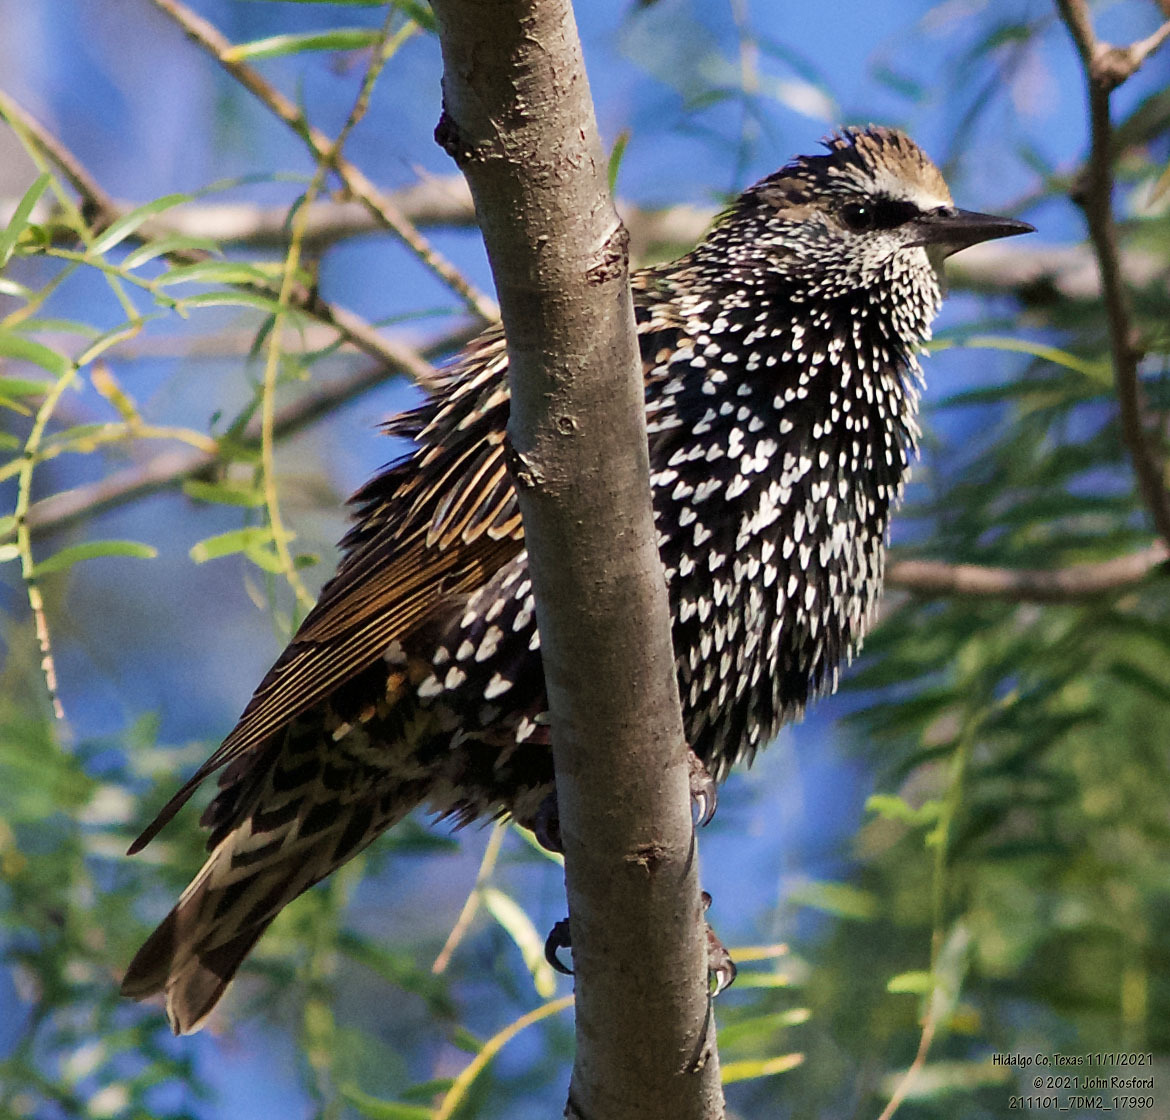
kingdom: Animalia
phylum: Chordata
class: Aves
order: Passeriformes
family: Sturnidae
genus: Sturnus
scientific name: Sturnus vulgaris
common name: Common starling
